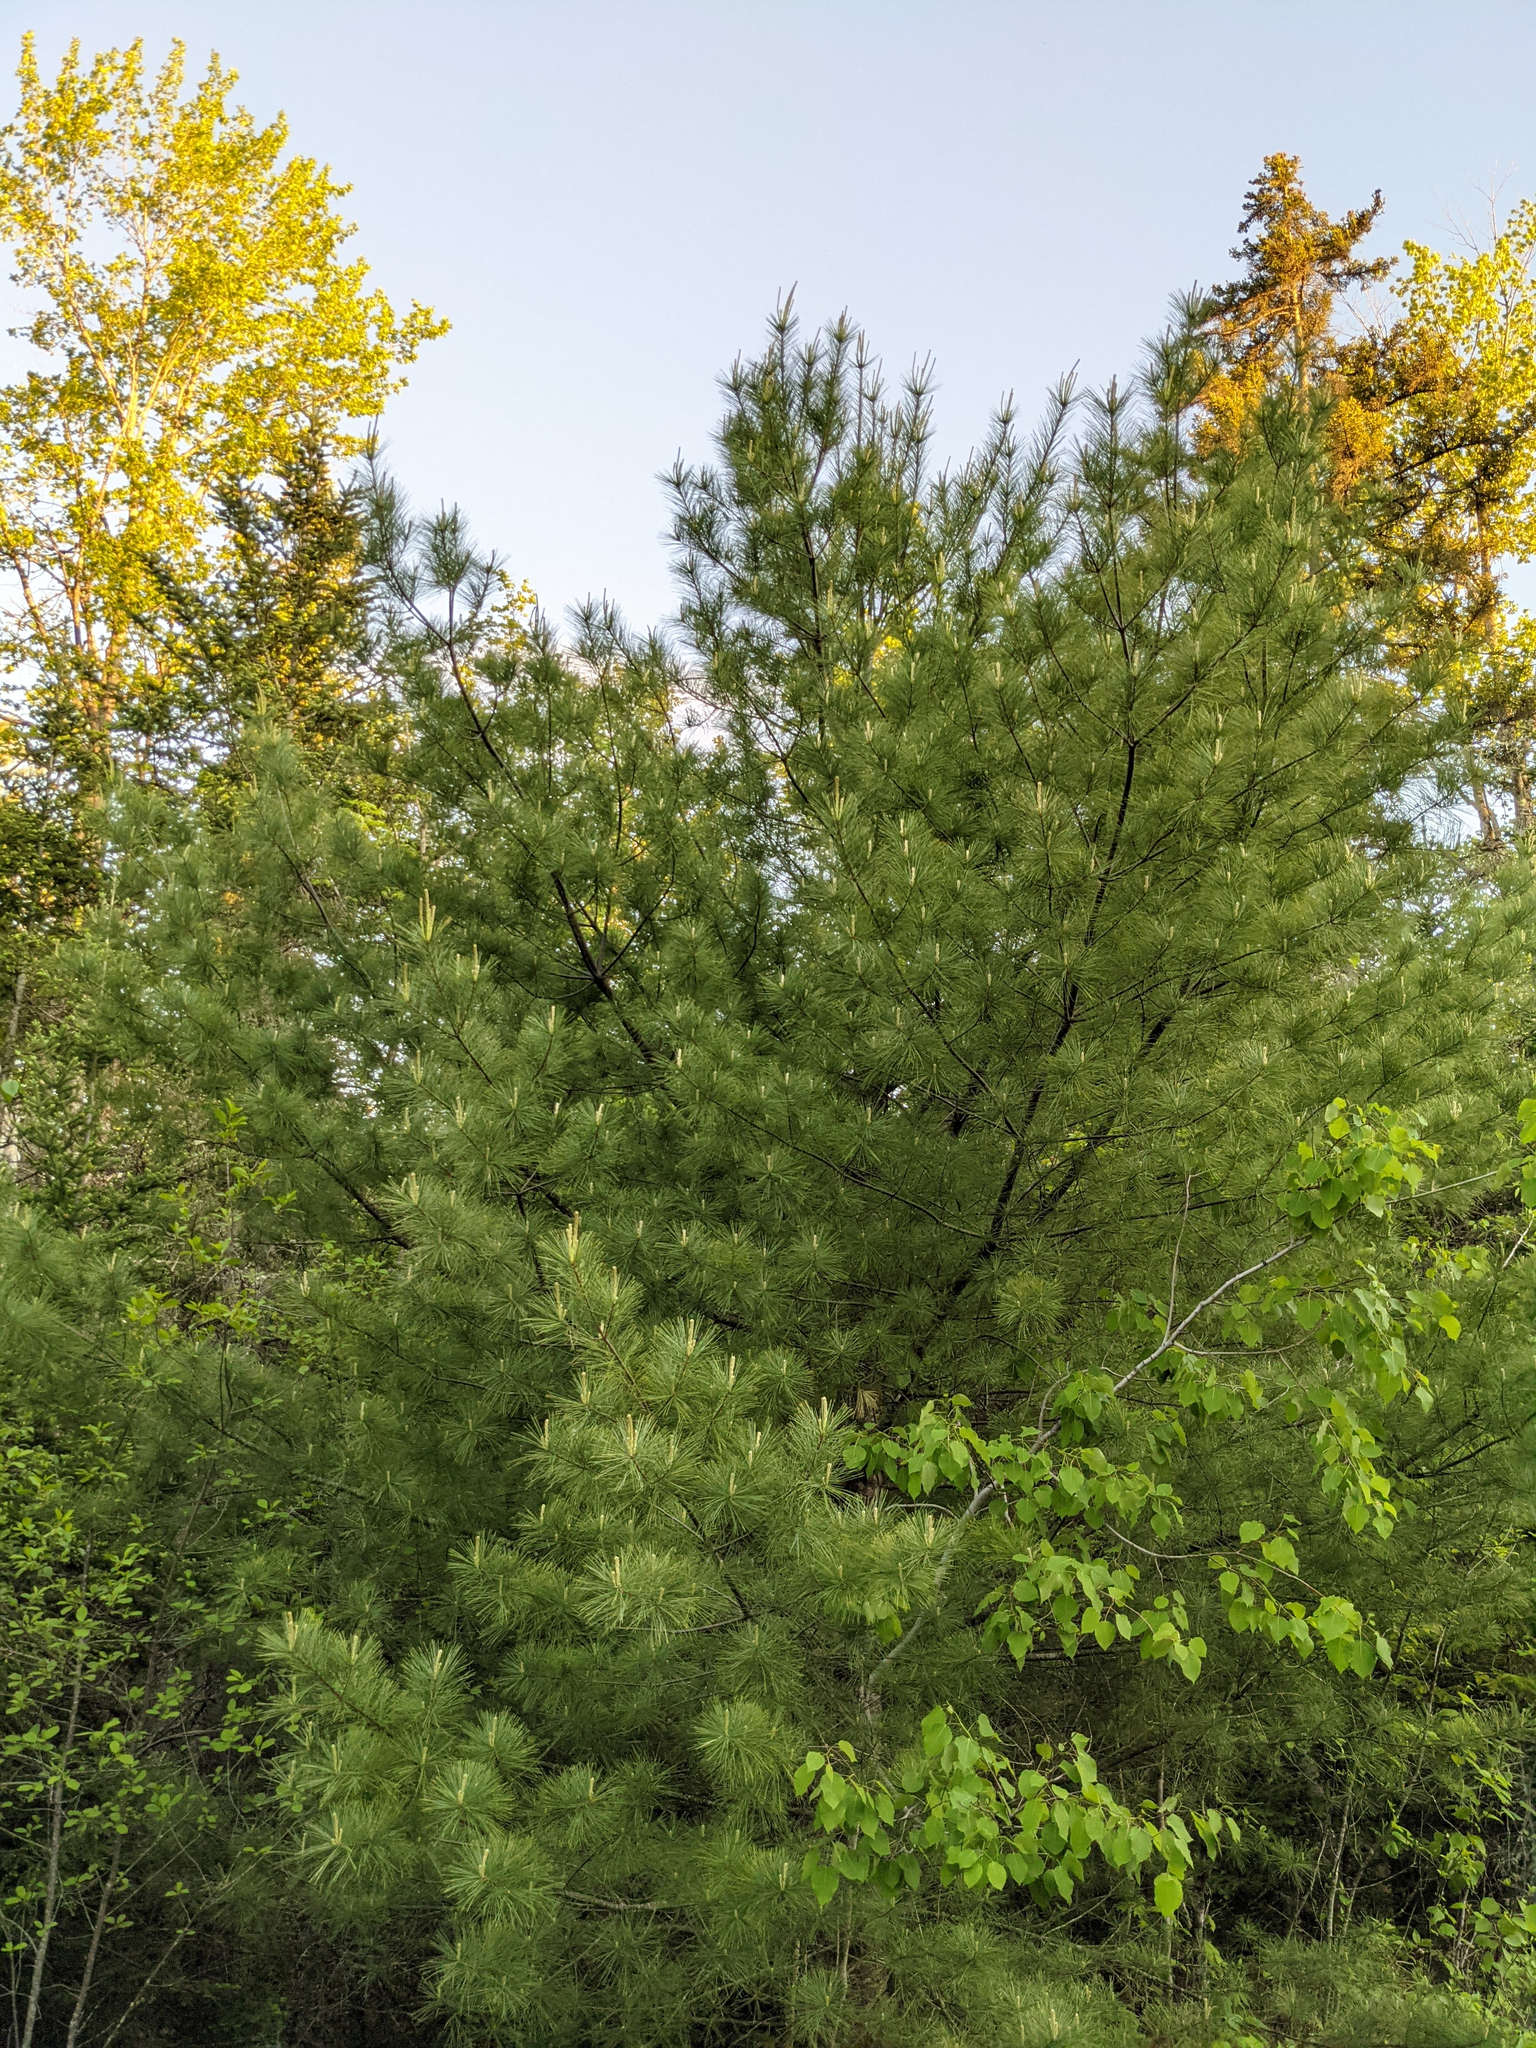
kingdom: Plantae
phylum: Tracheophyta
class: Pinopsida
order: Pinales
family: Pinaceae
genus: Pinus
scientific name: Pinus strobus
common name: Weymouth pine
